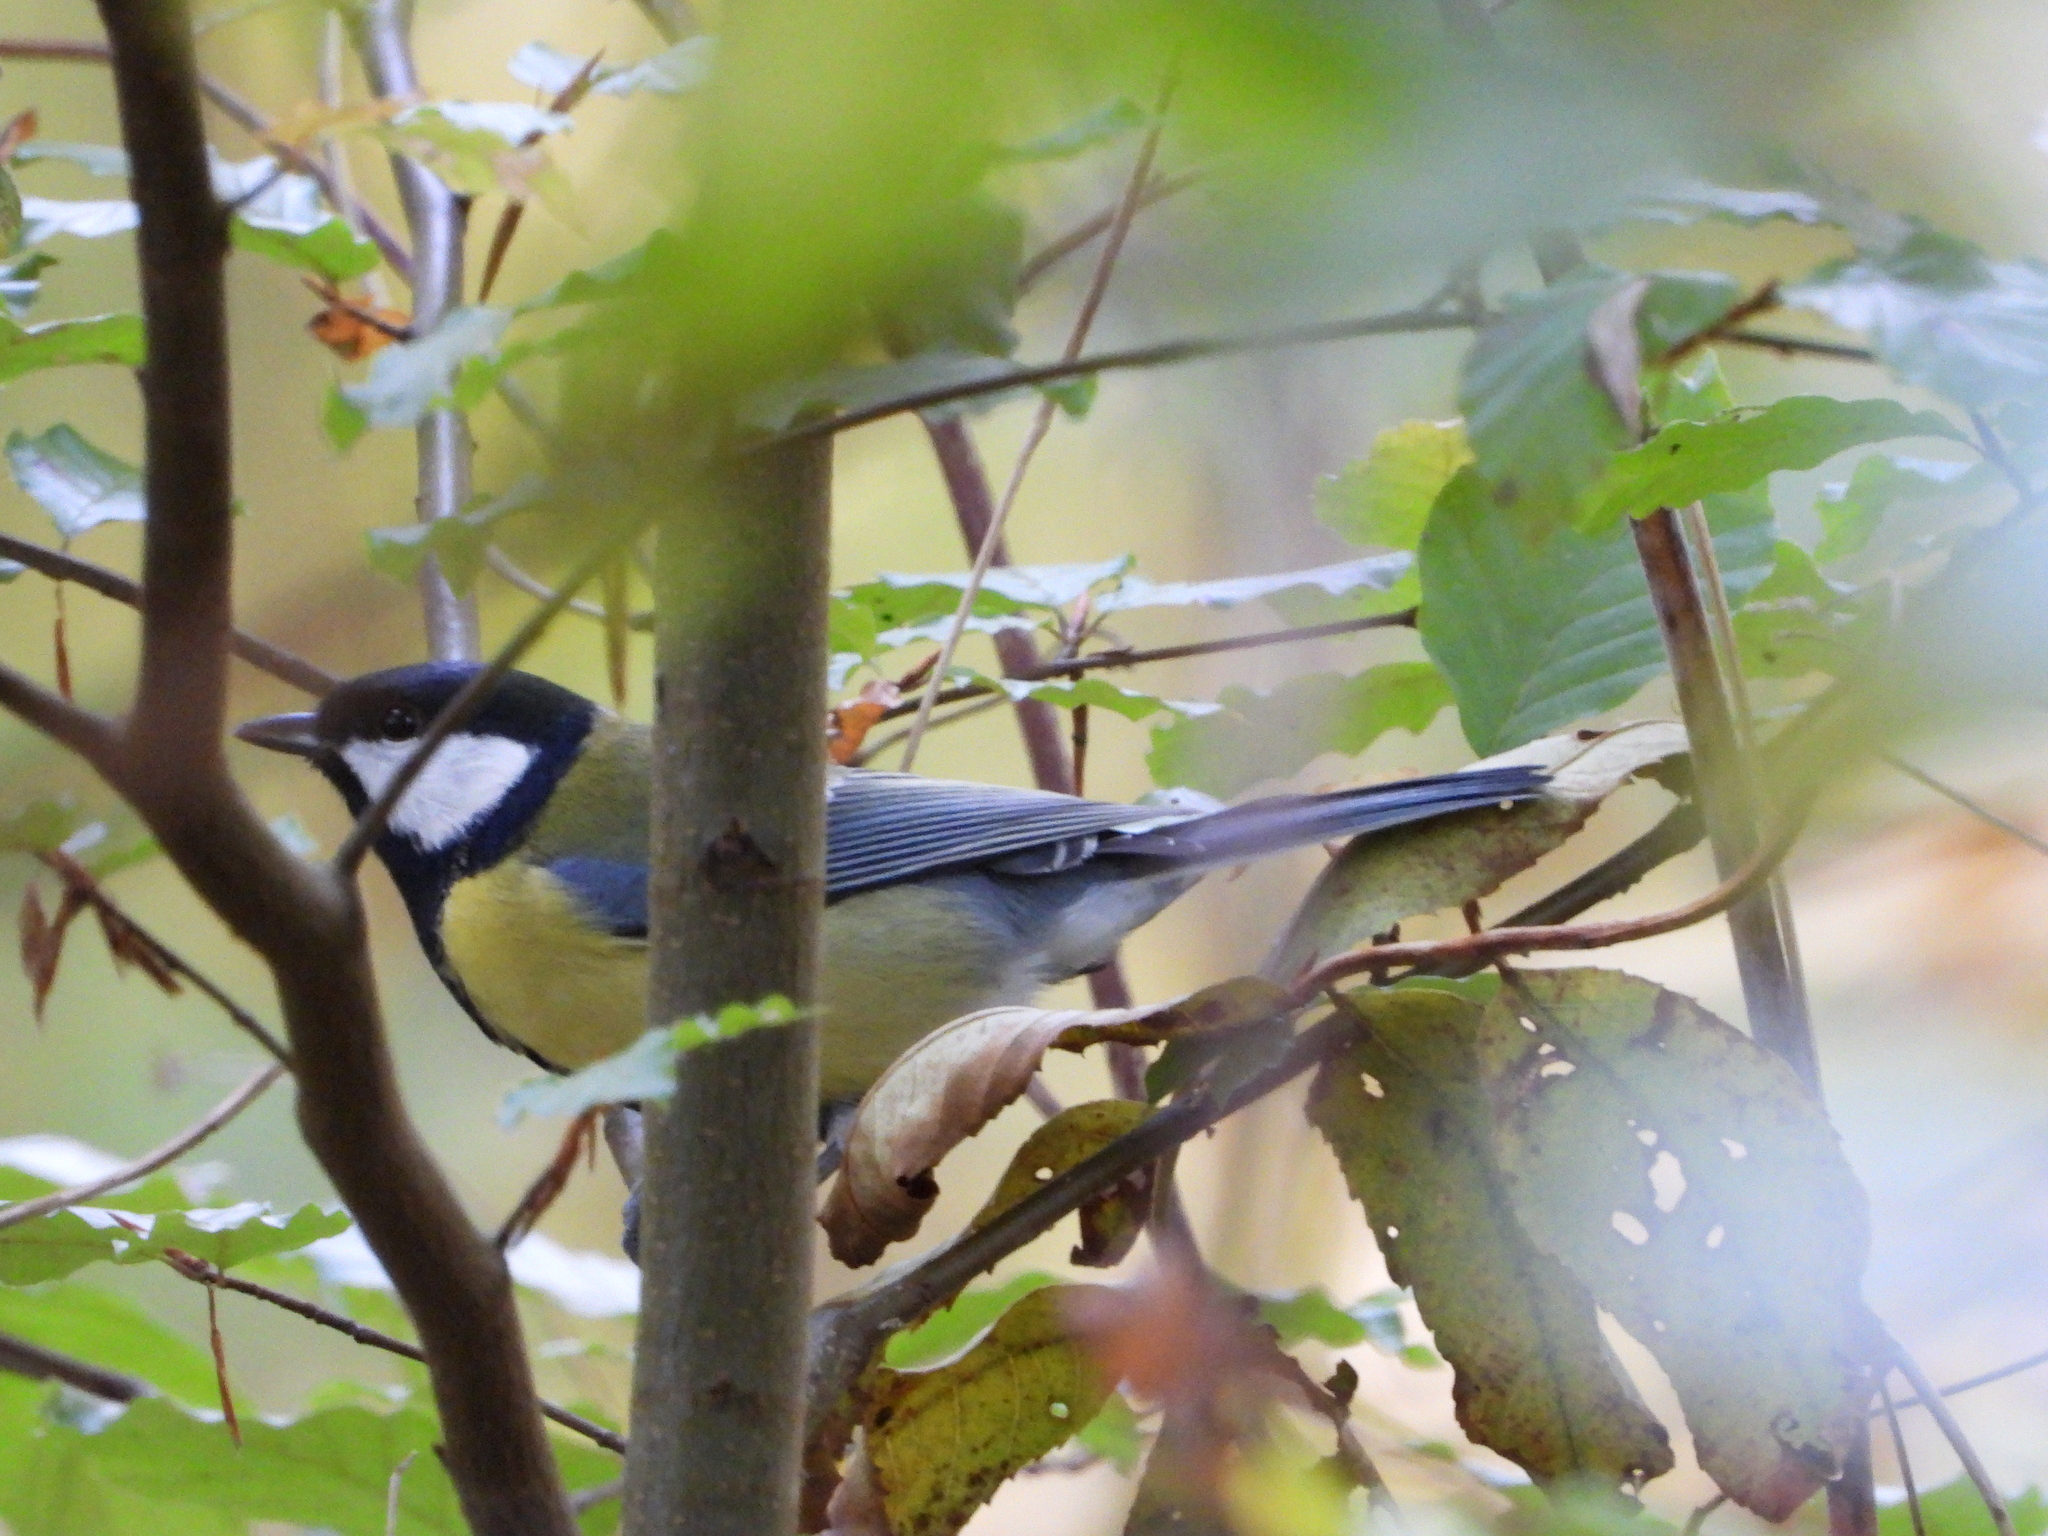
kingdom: Animalia
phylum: Chordata
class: Aves
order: Passeriformes
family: Paridae
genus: Parus
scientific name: Parus major
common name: Great tit
